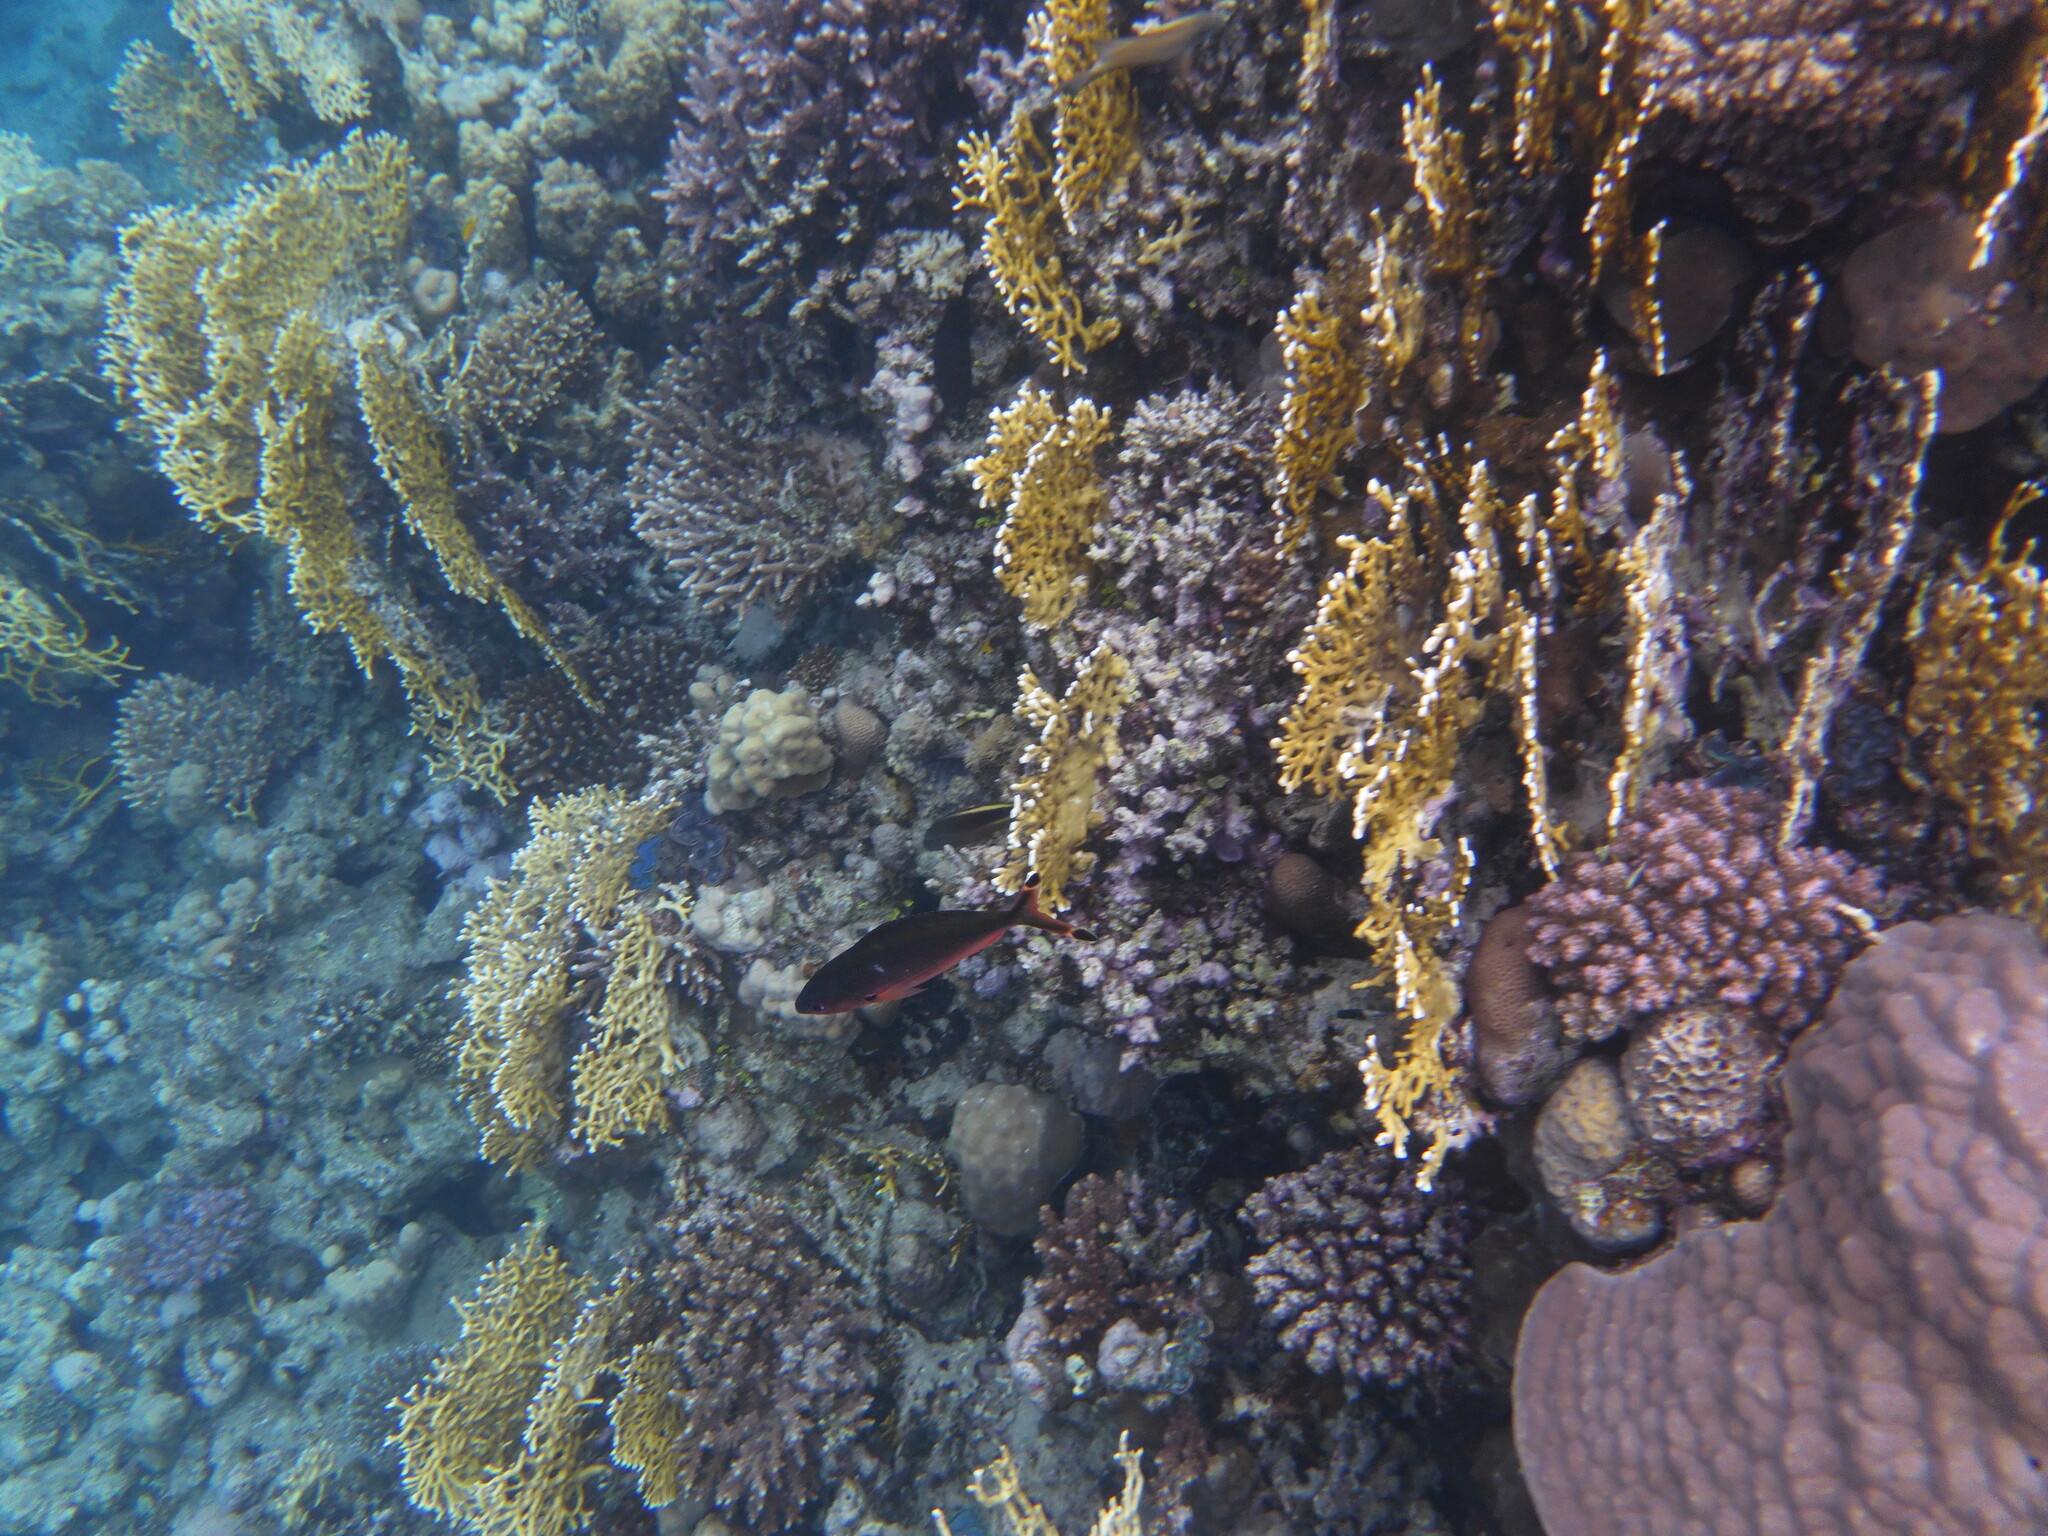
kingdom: Animalia
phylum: Chordata
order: Perciformes
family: Caesionidae
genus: Caesio
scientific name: Caesio suevica
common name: Suez fusilier
